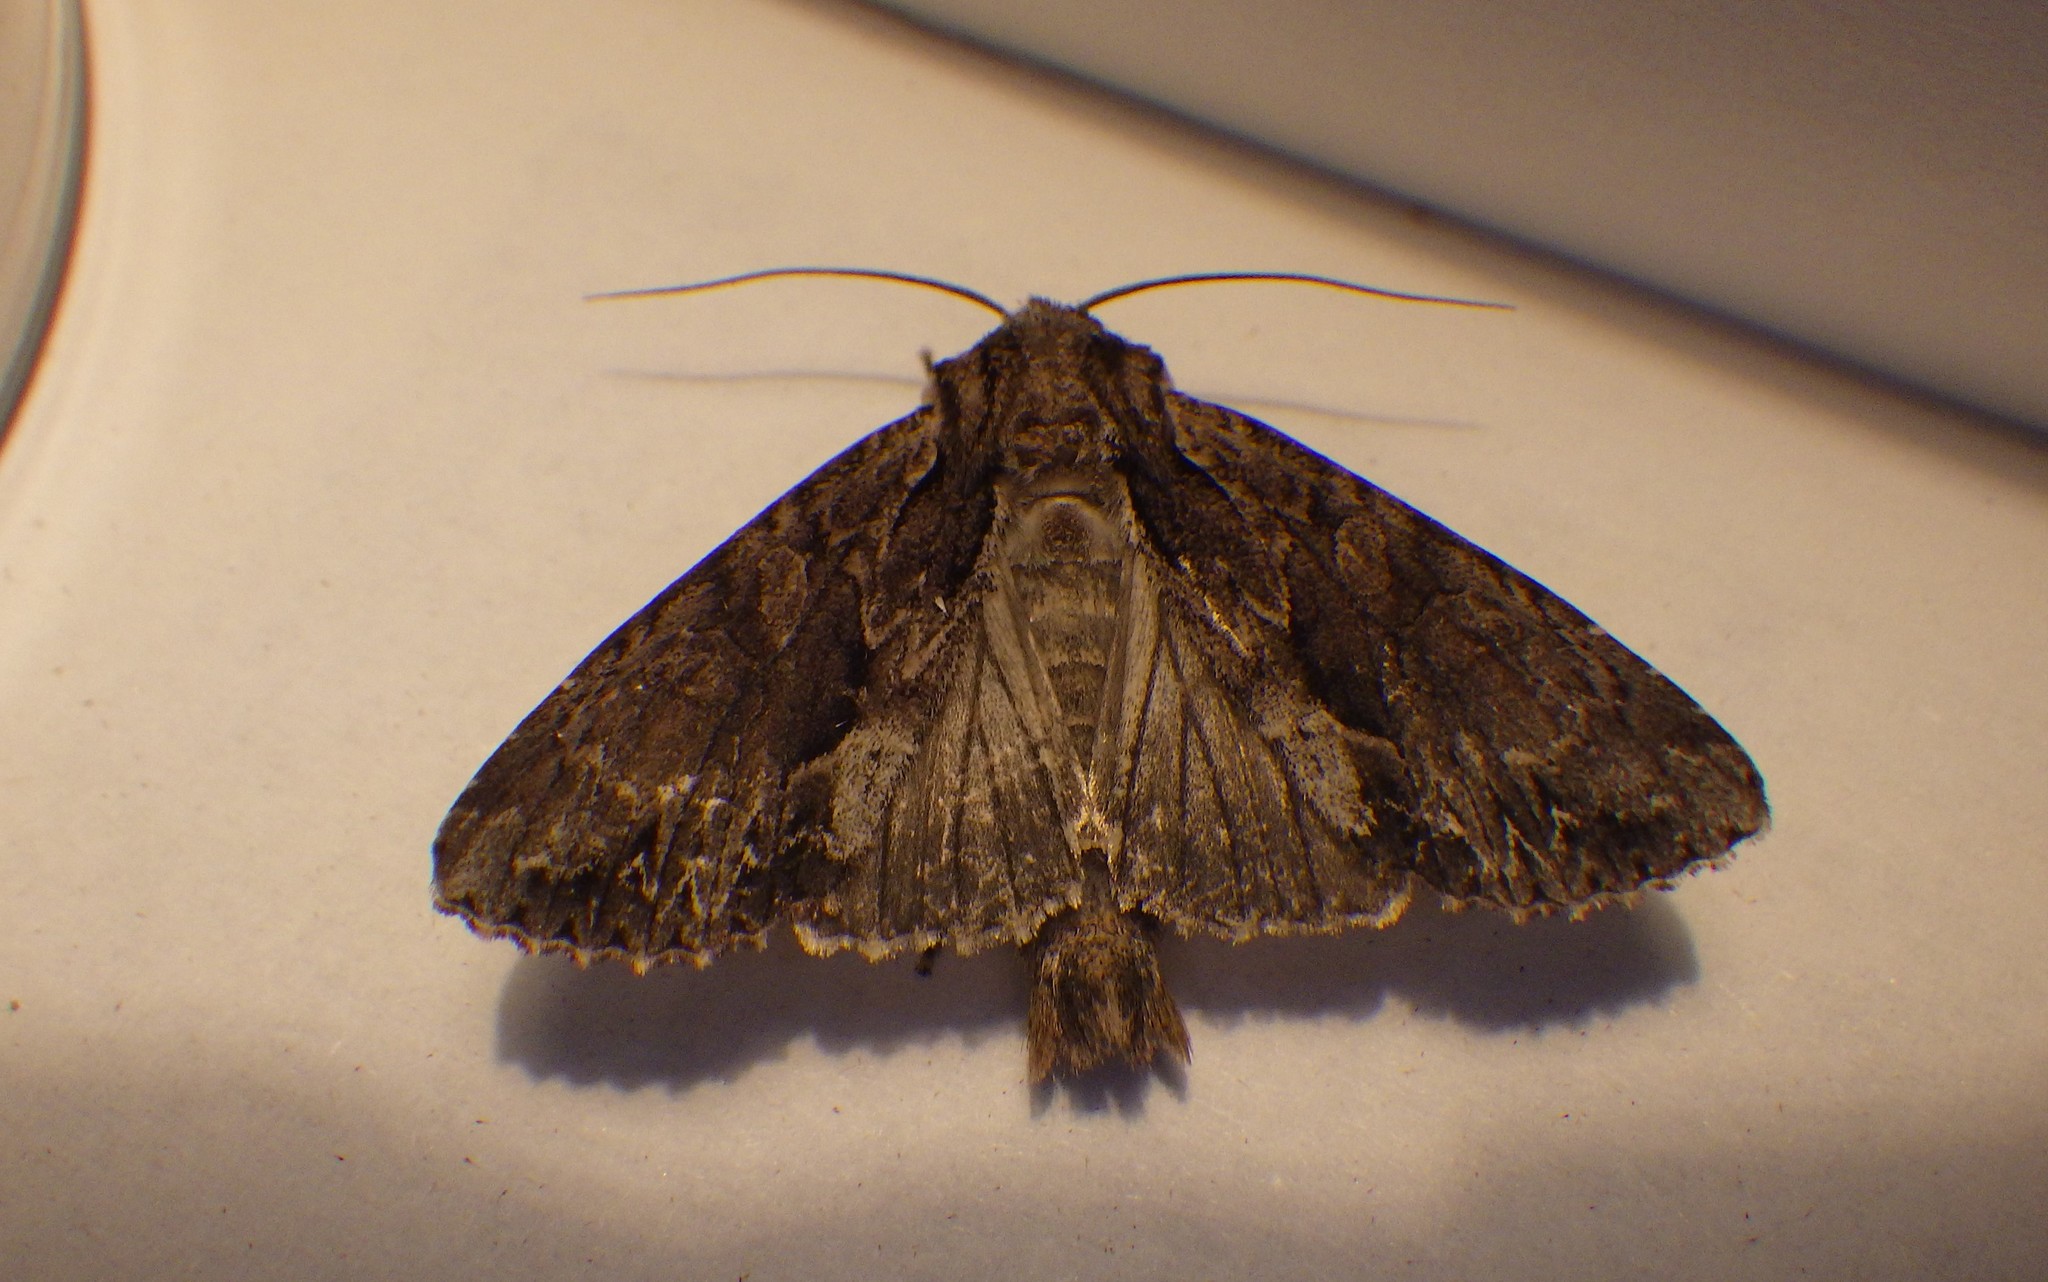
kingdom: Animalia
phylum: Arthropoda
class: Insecta
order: Lepidoptera
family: Noctuidae
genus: Apamea
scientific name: Apamea monoglypha
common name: Dark arches
